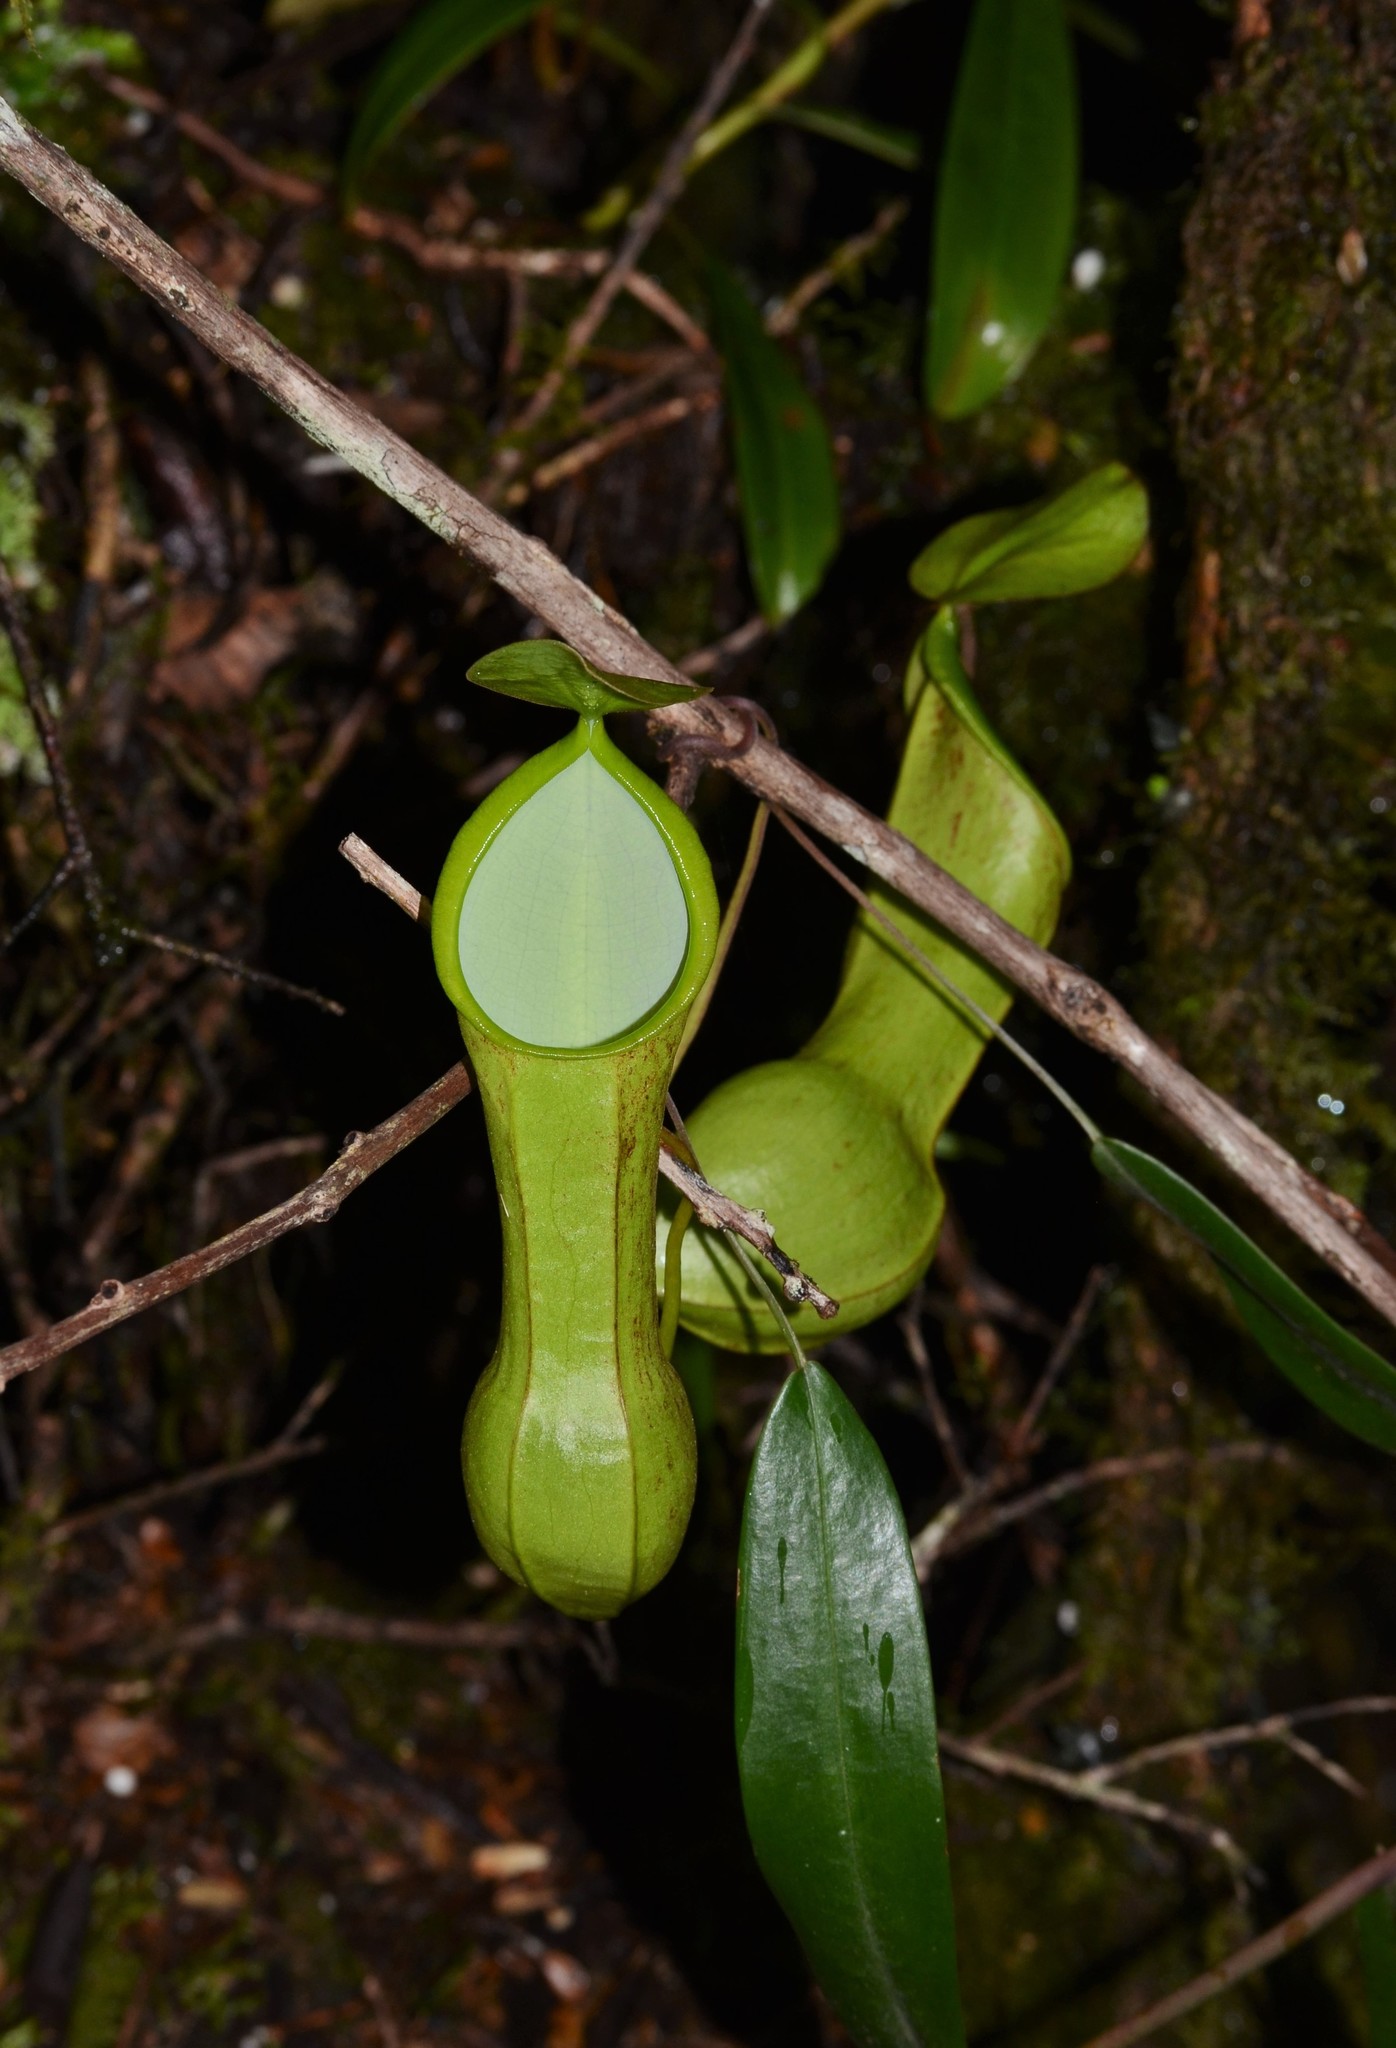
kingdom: Plantae
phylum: Tracheophyta
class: Magnoliopsida
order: Caryophyllales
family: Nepenthaceae
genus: Nepenthes
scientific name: Nepenthes mikei
